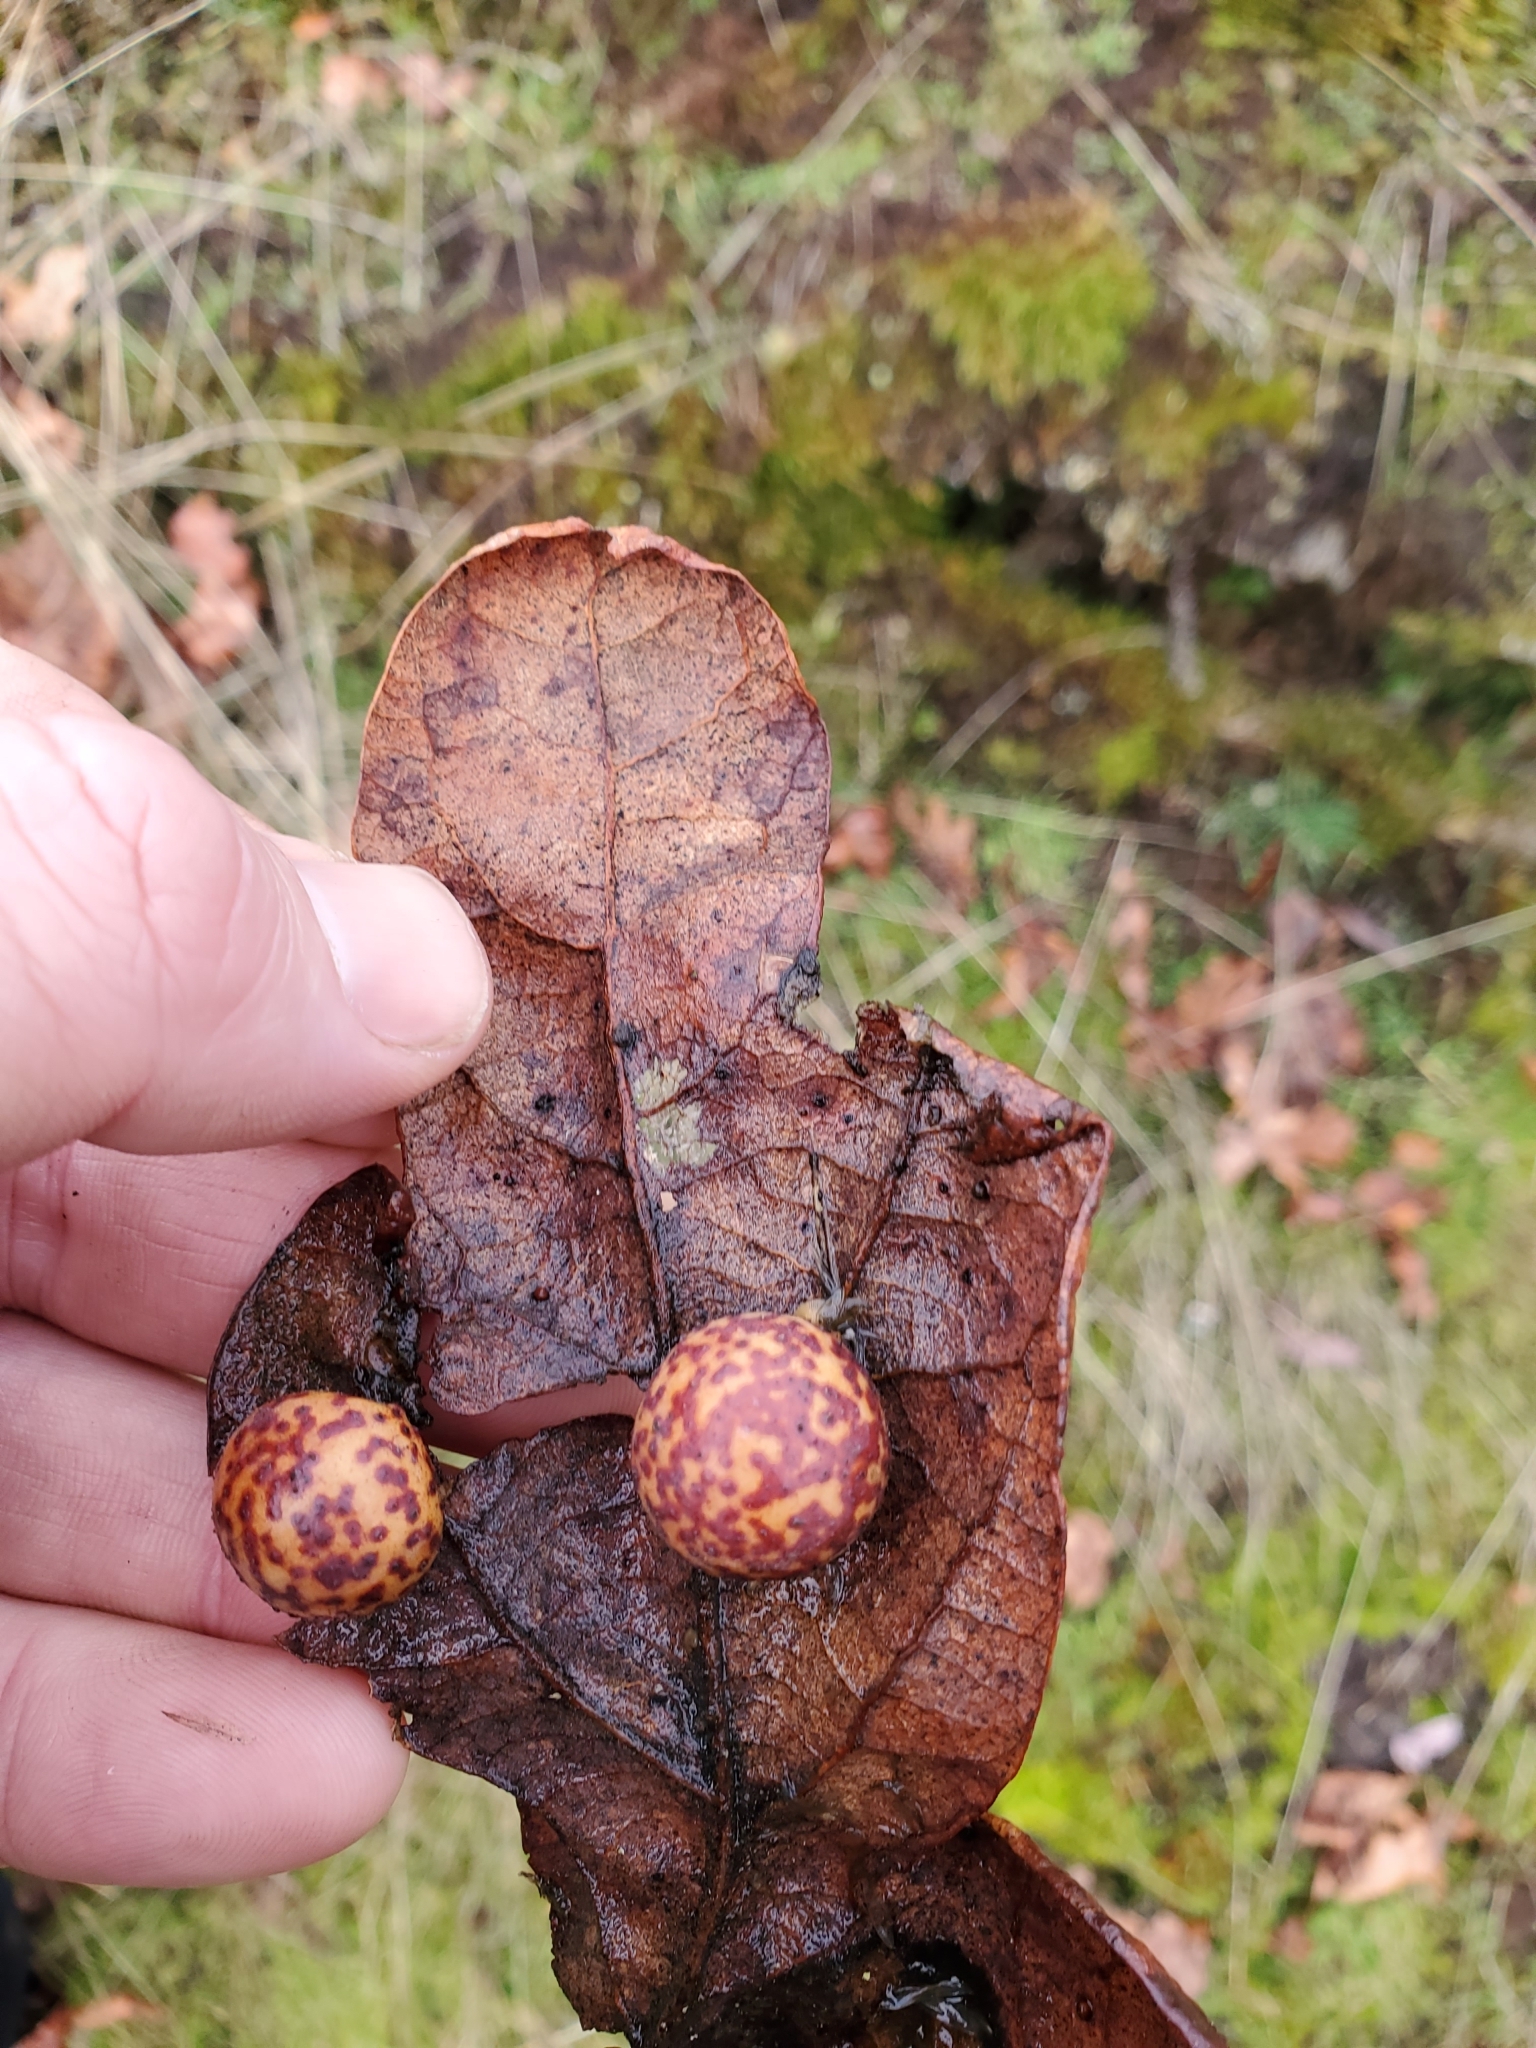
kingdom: Animalia
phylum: Arthropoda
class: Insecta
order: Hymenoptera
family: Cynipidae
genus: Cynips
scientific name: Cynips
